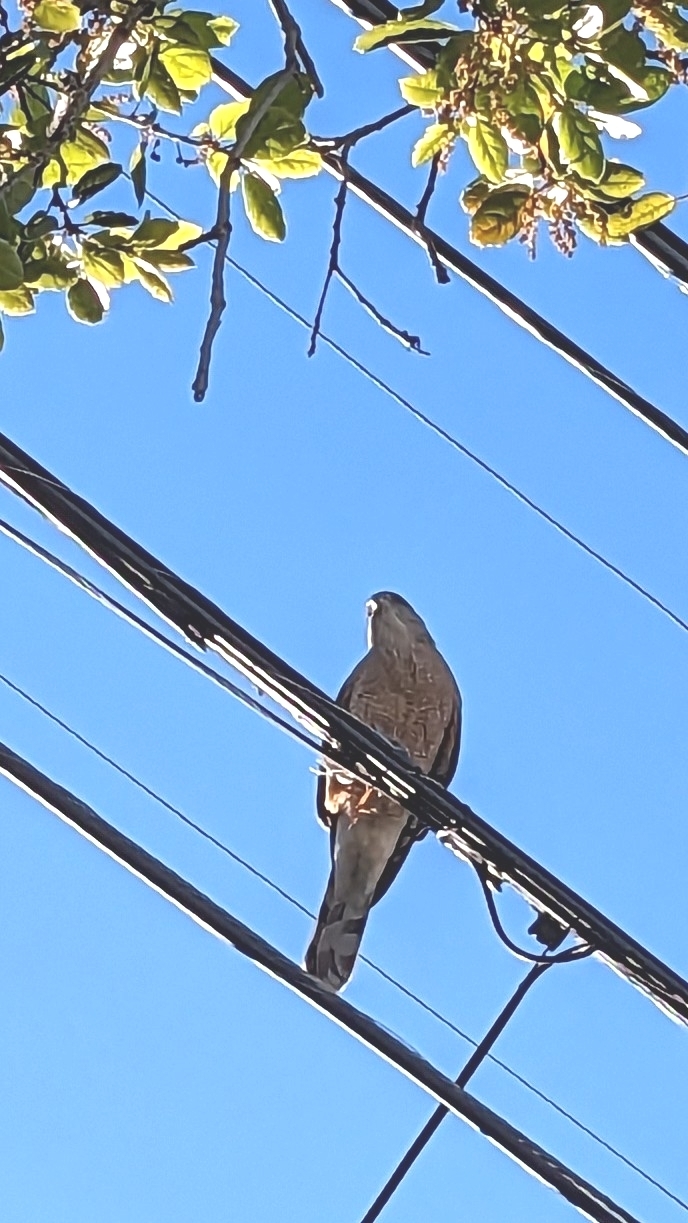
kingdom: Animalia
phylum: Chordata
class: Aves
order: Accipitriformes
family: Accipitridae
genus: Accipiter
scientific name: Accipiter cooperii
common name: Cooper's hawk
